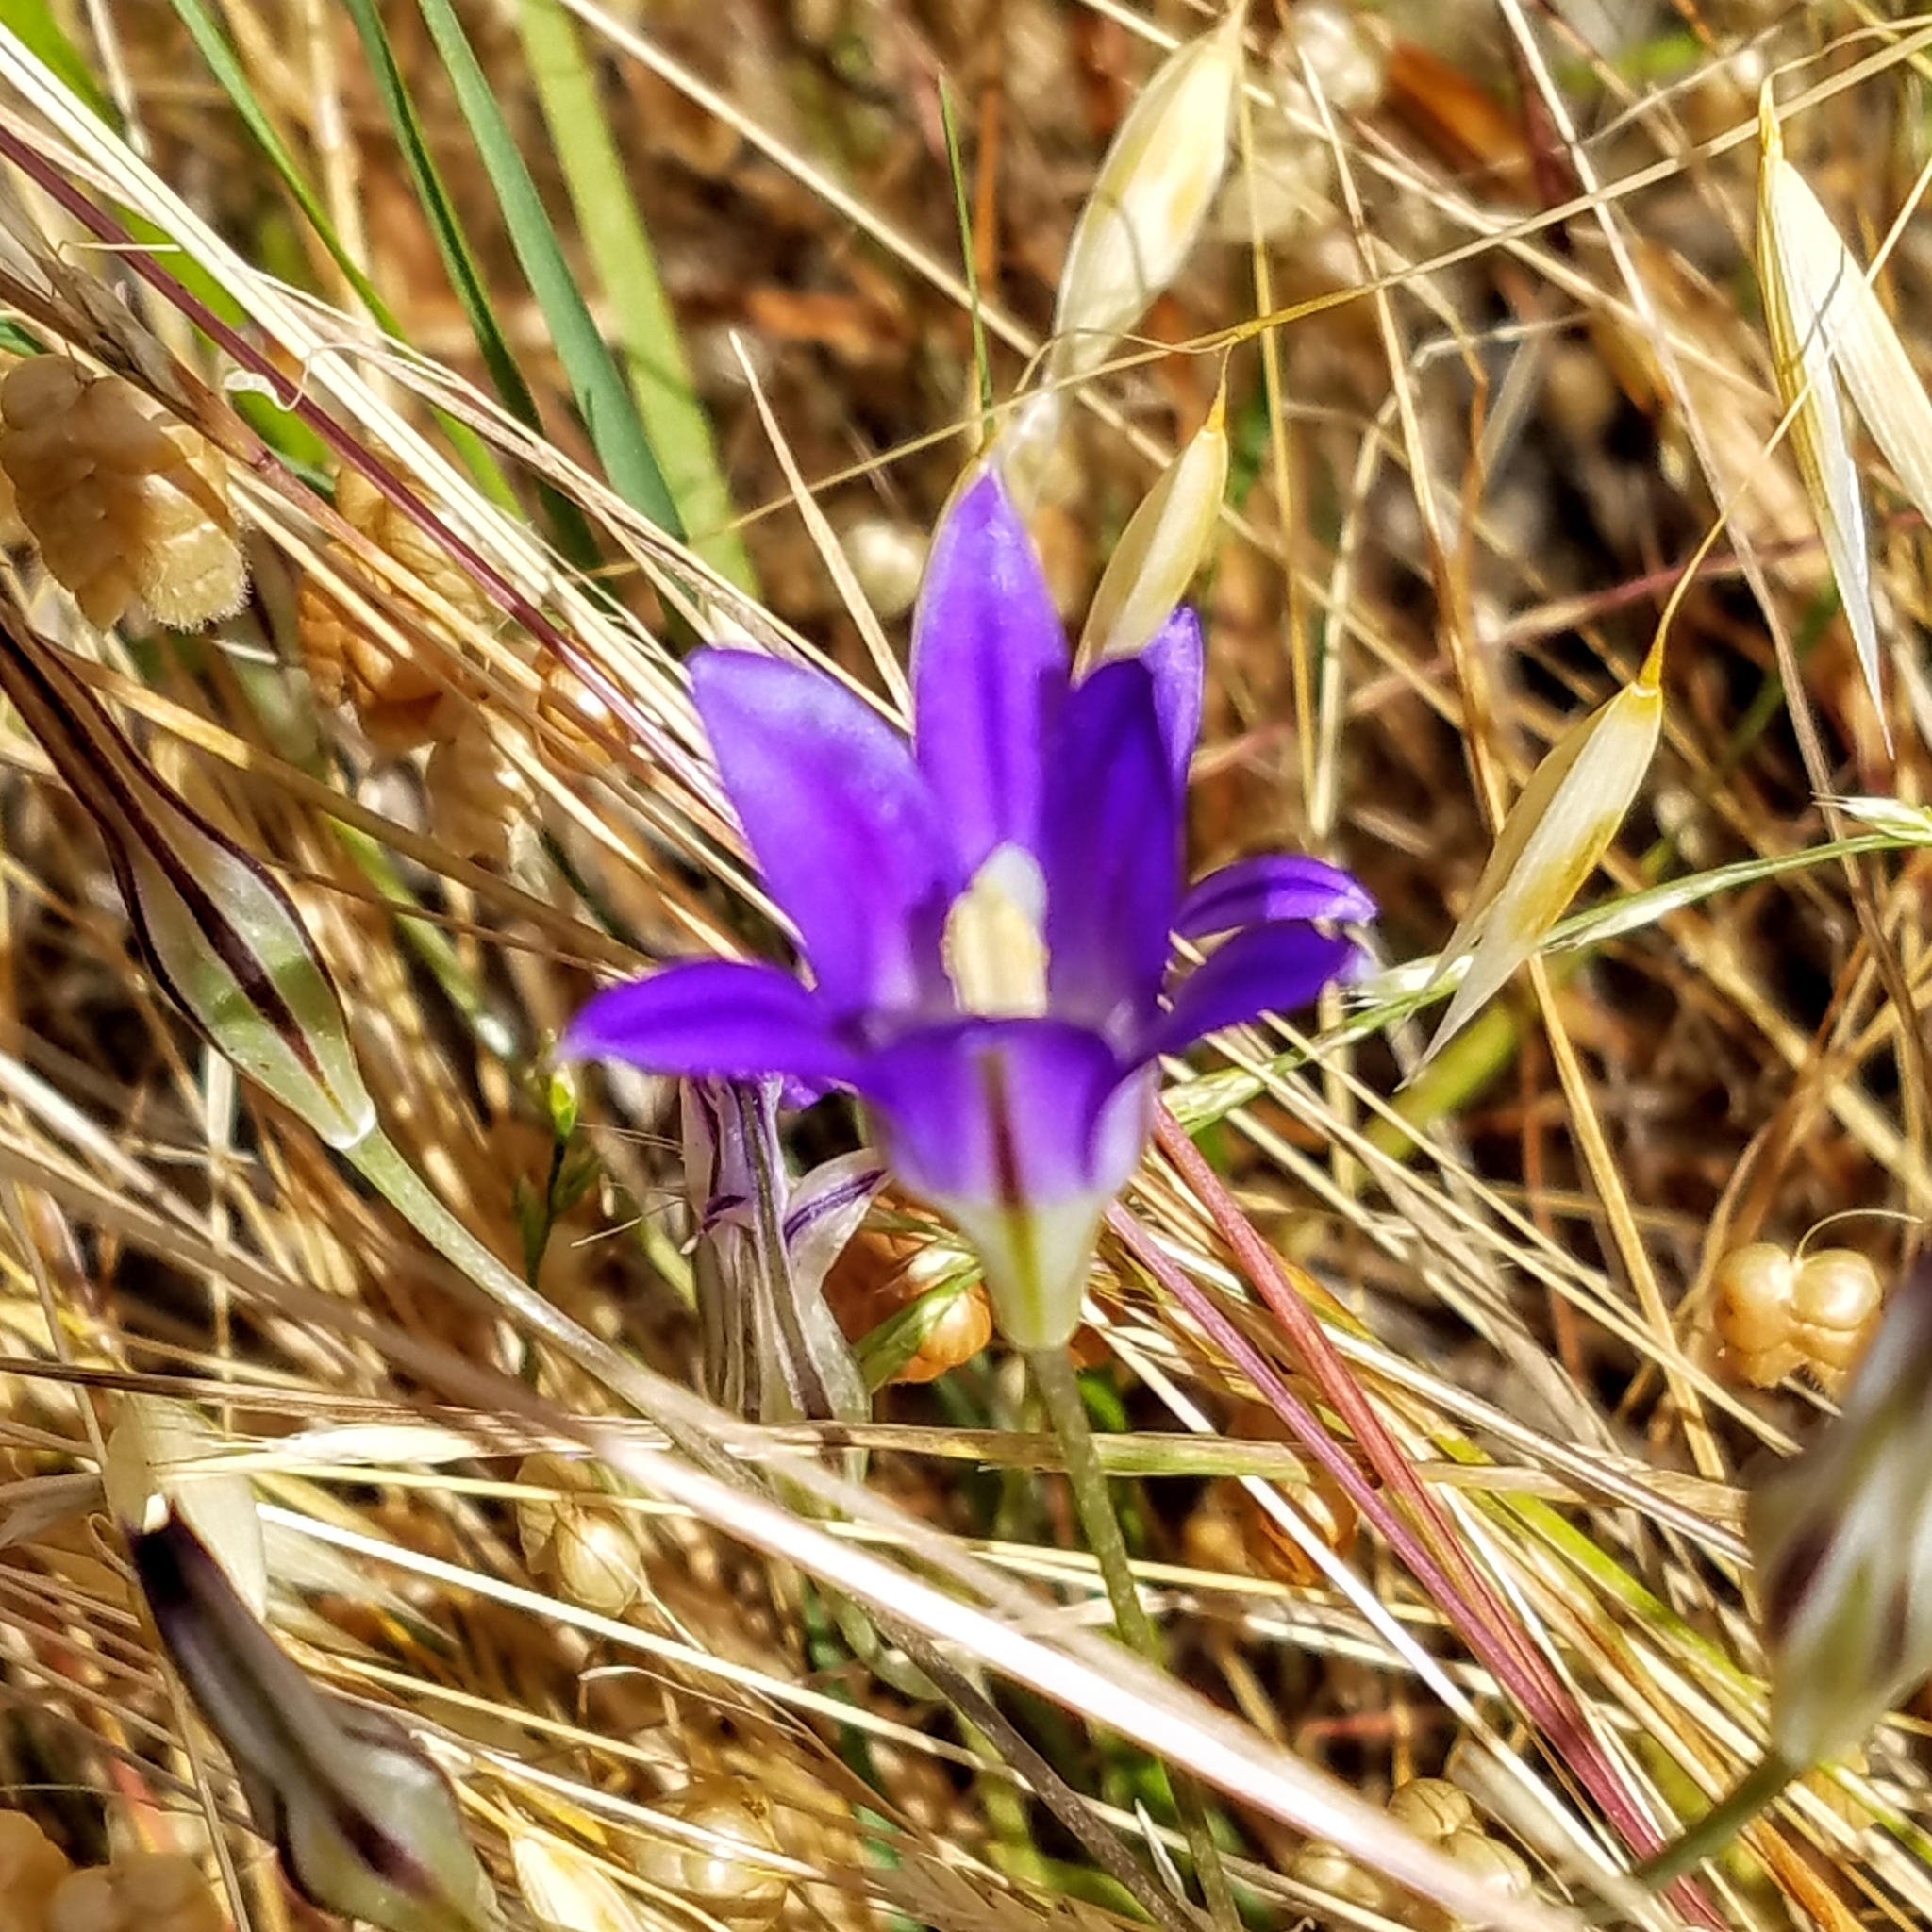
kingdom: Plantae
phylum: Tracheophyta
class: Liliopsida
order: Asparagales
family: Asparagaceae
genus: Brodiaea
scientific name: Brodiaea elegans
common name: Elegant cluster-lily
